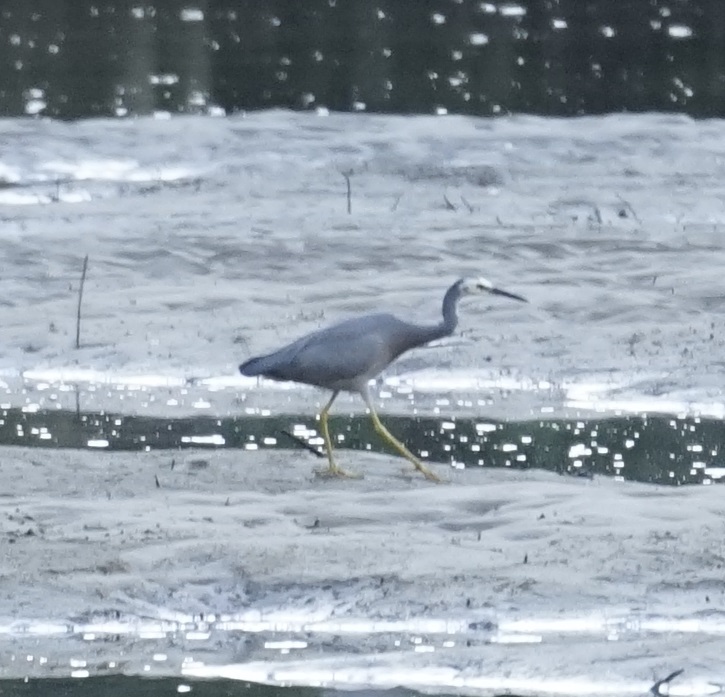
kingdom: Animalia
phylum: Chordata
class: Aves
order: Pelecaniformes
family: Ardeidae
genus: Egretta
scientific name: Egretta novaehollandiae
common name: White-faced heron
